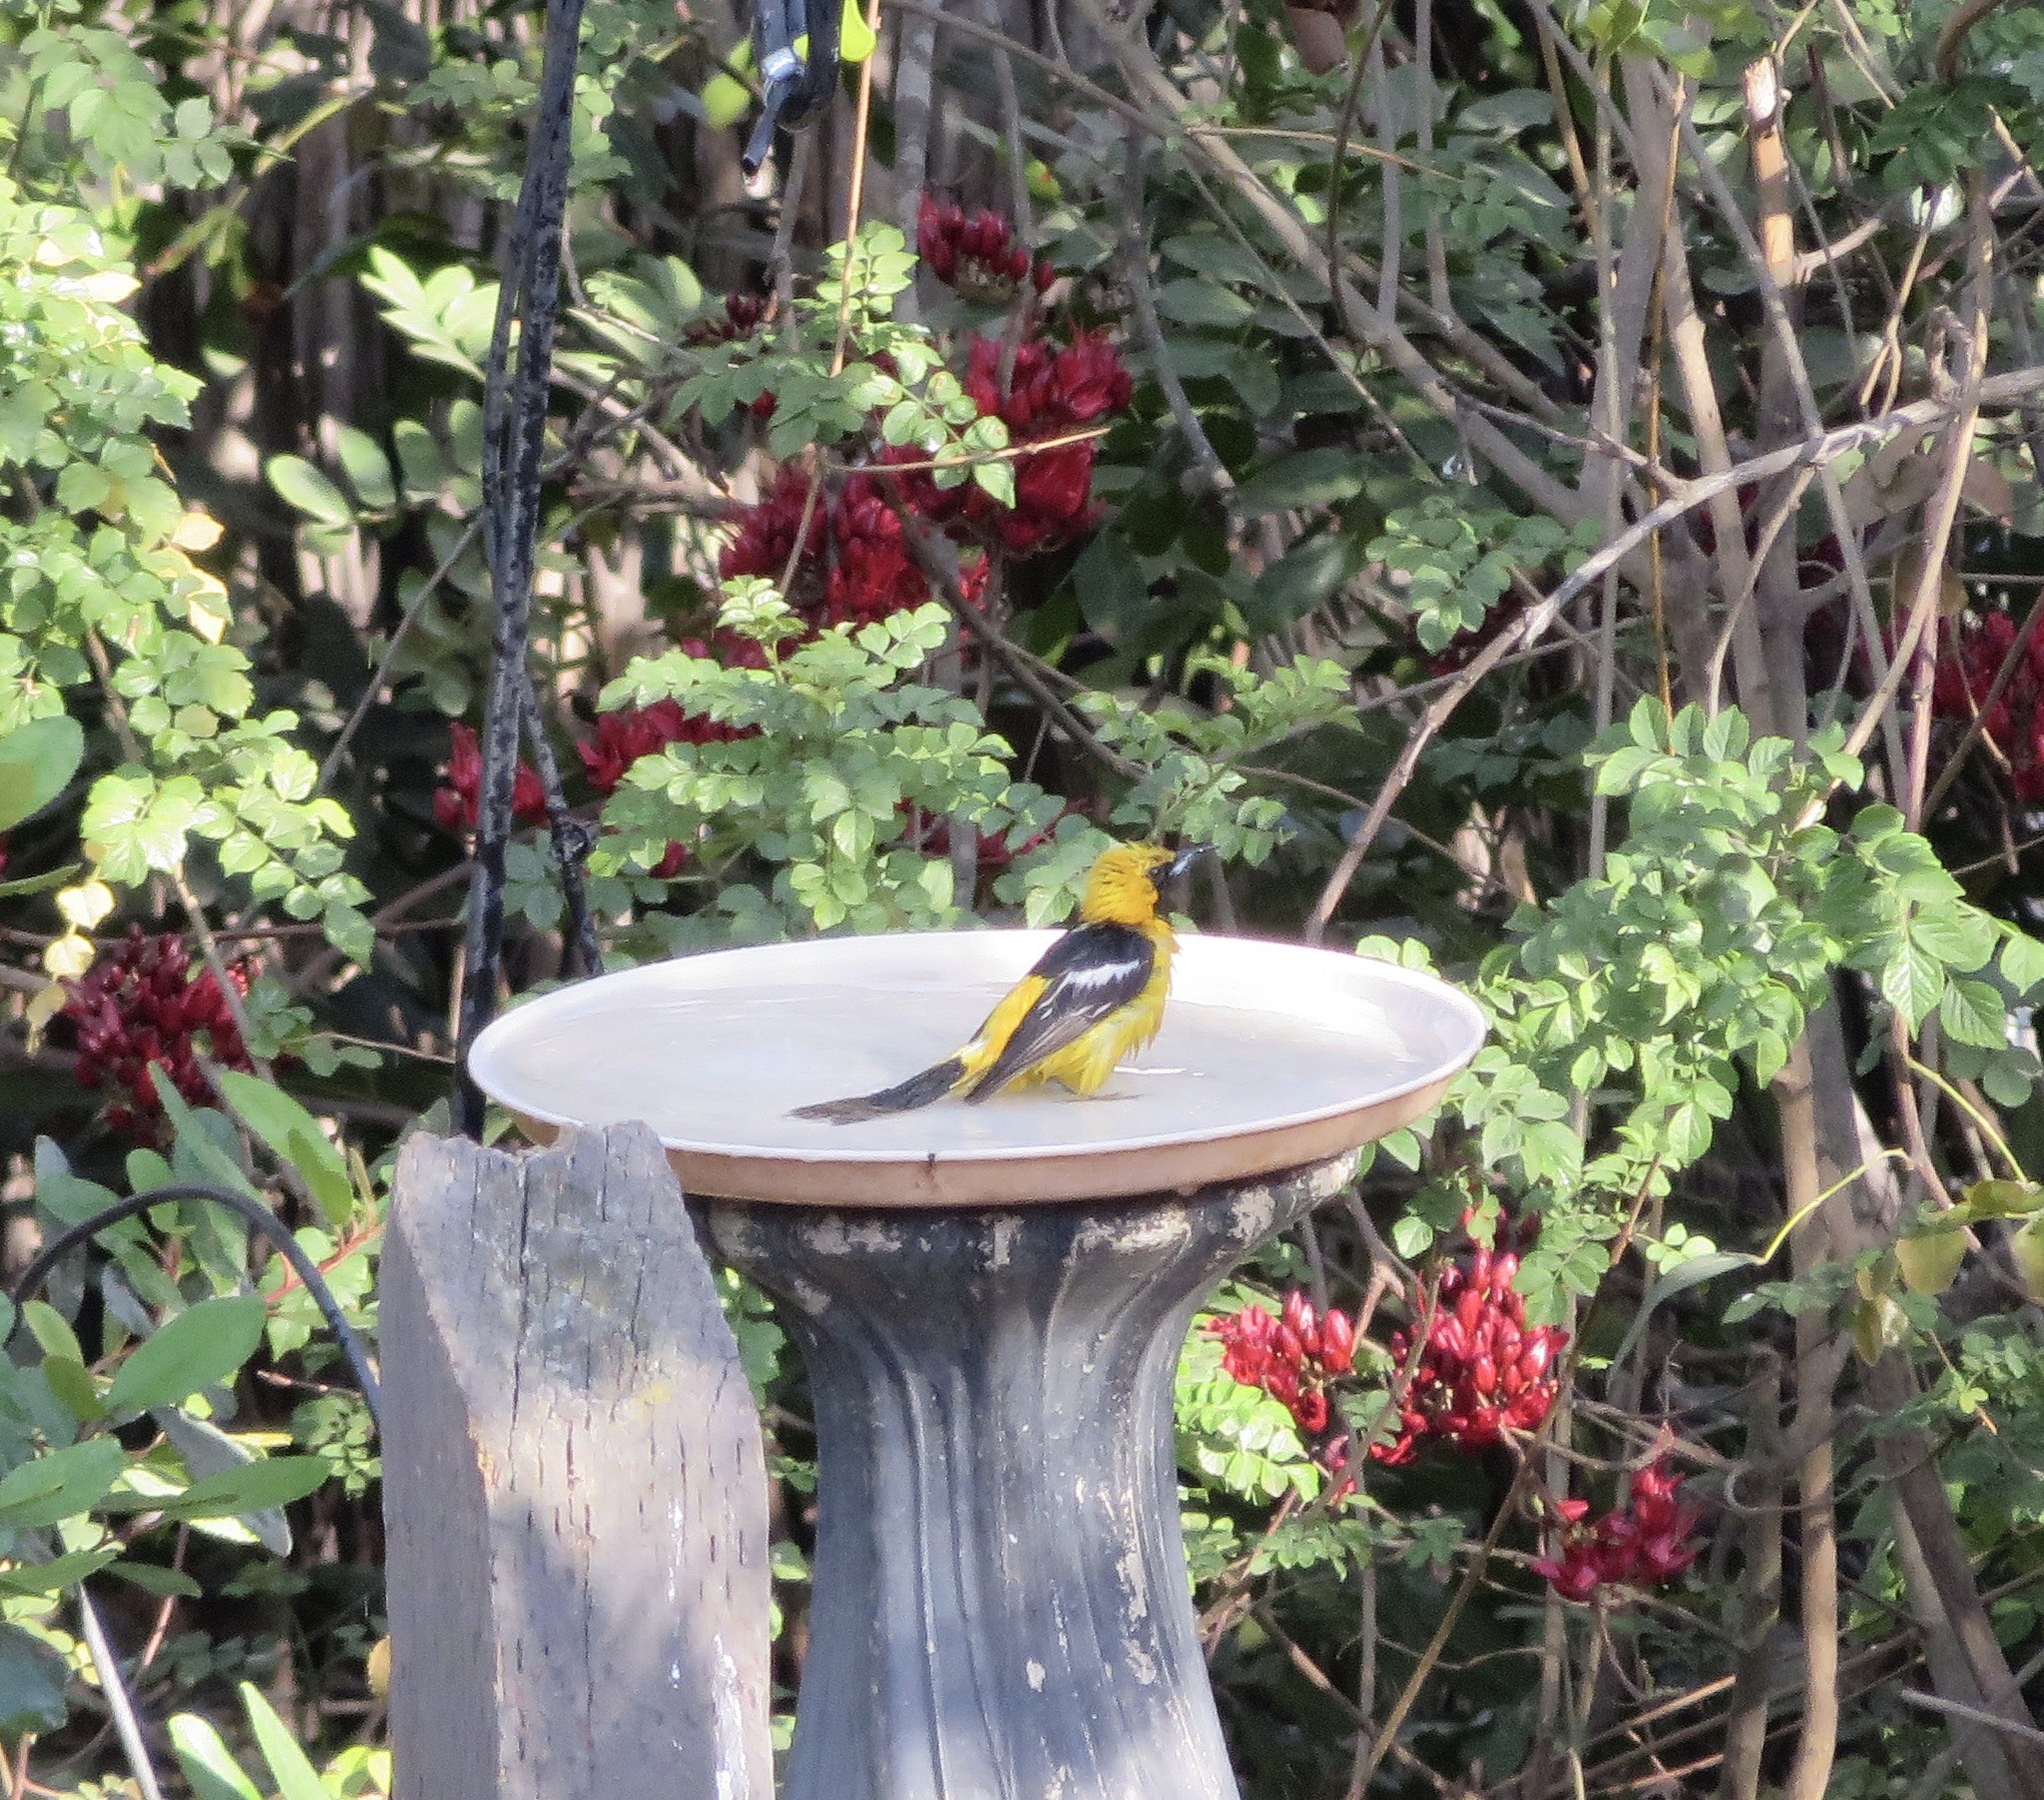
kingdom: Animalia
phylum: Chordata
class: Aves
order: Passeriformes
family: Icteridae
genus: Icterus
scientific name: Icterus cucullatus
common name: Hooded oriole
